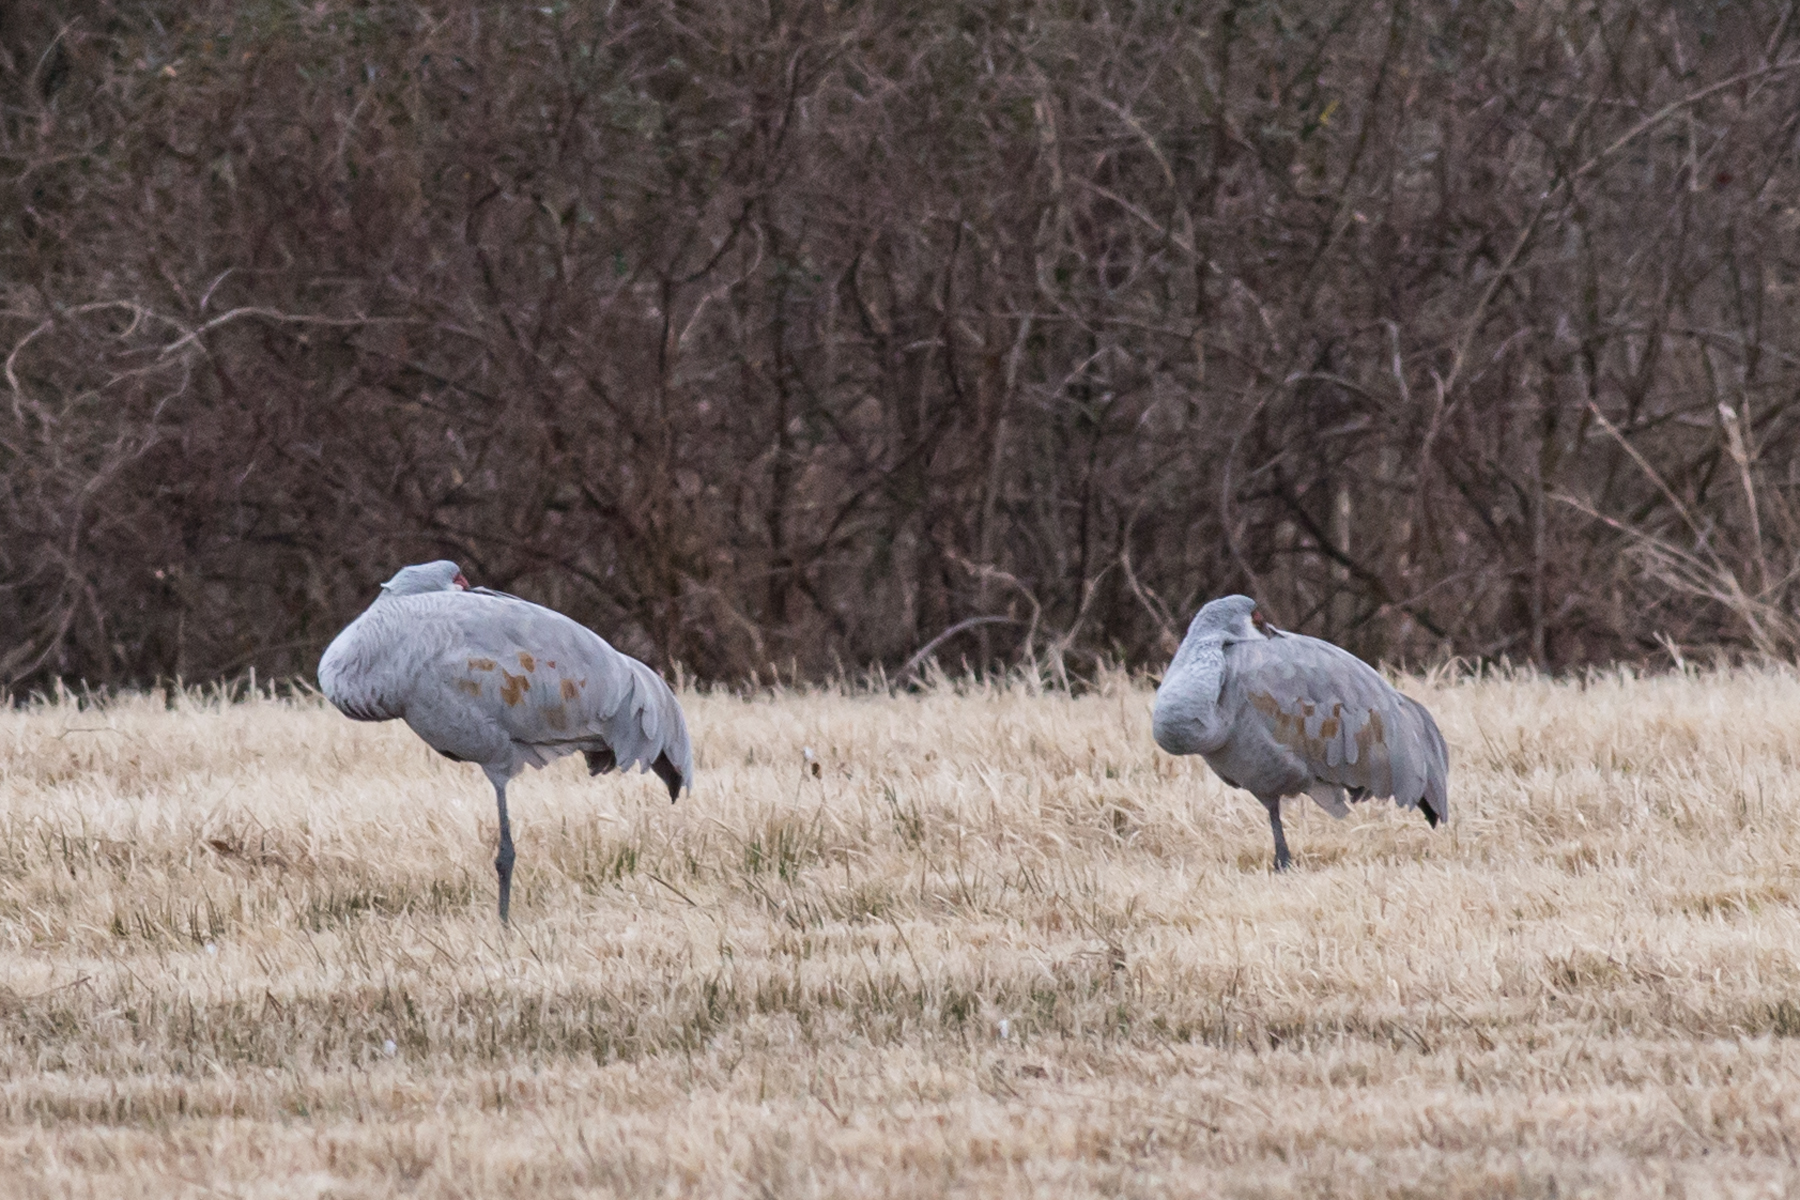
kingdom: Animalia
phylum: Chordata
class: Aves
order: Gruiformes
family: Gruidae
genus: Grus
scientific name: Grus canadensis
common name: Sandhill crane
